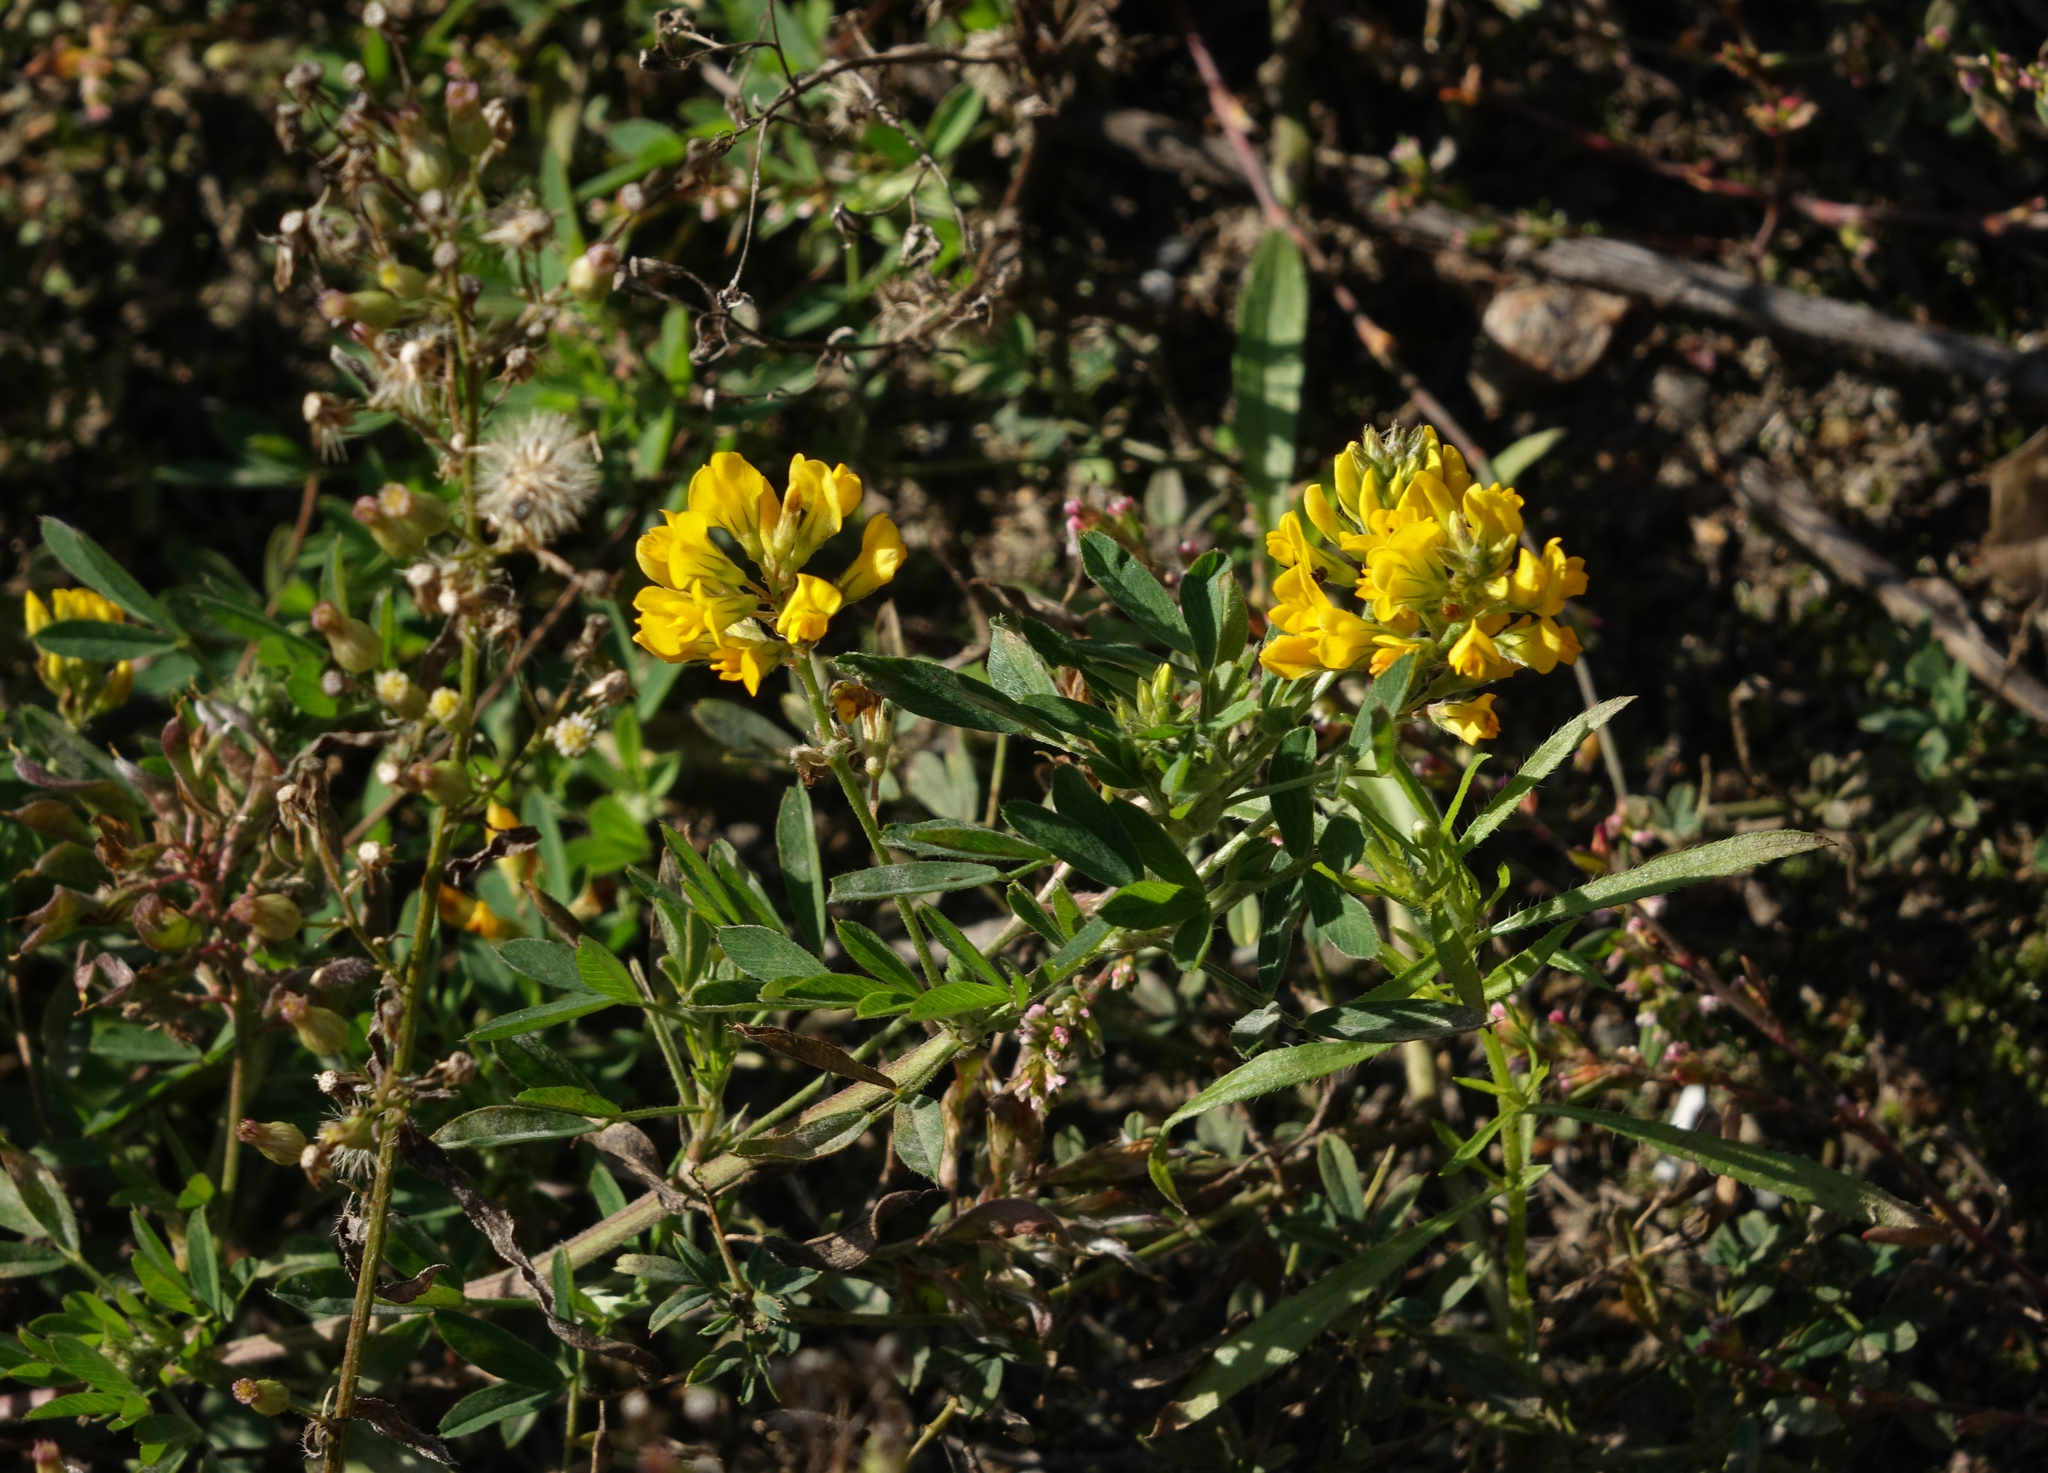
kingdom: Plantae
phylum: Tracheophyta
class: Magnoliopsida
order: Fabales
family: Fabaceae
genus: Medicago
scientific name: Medicago falcata
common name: Sickle medick
